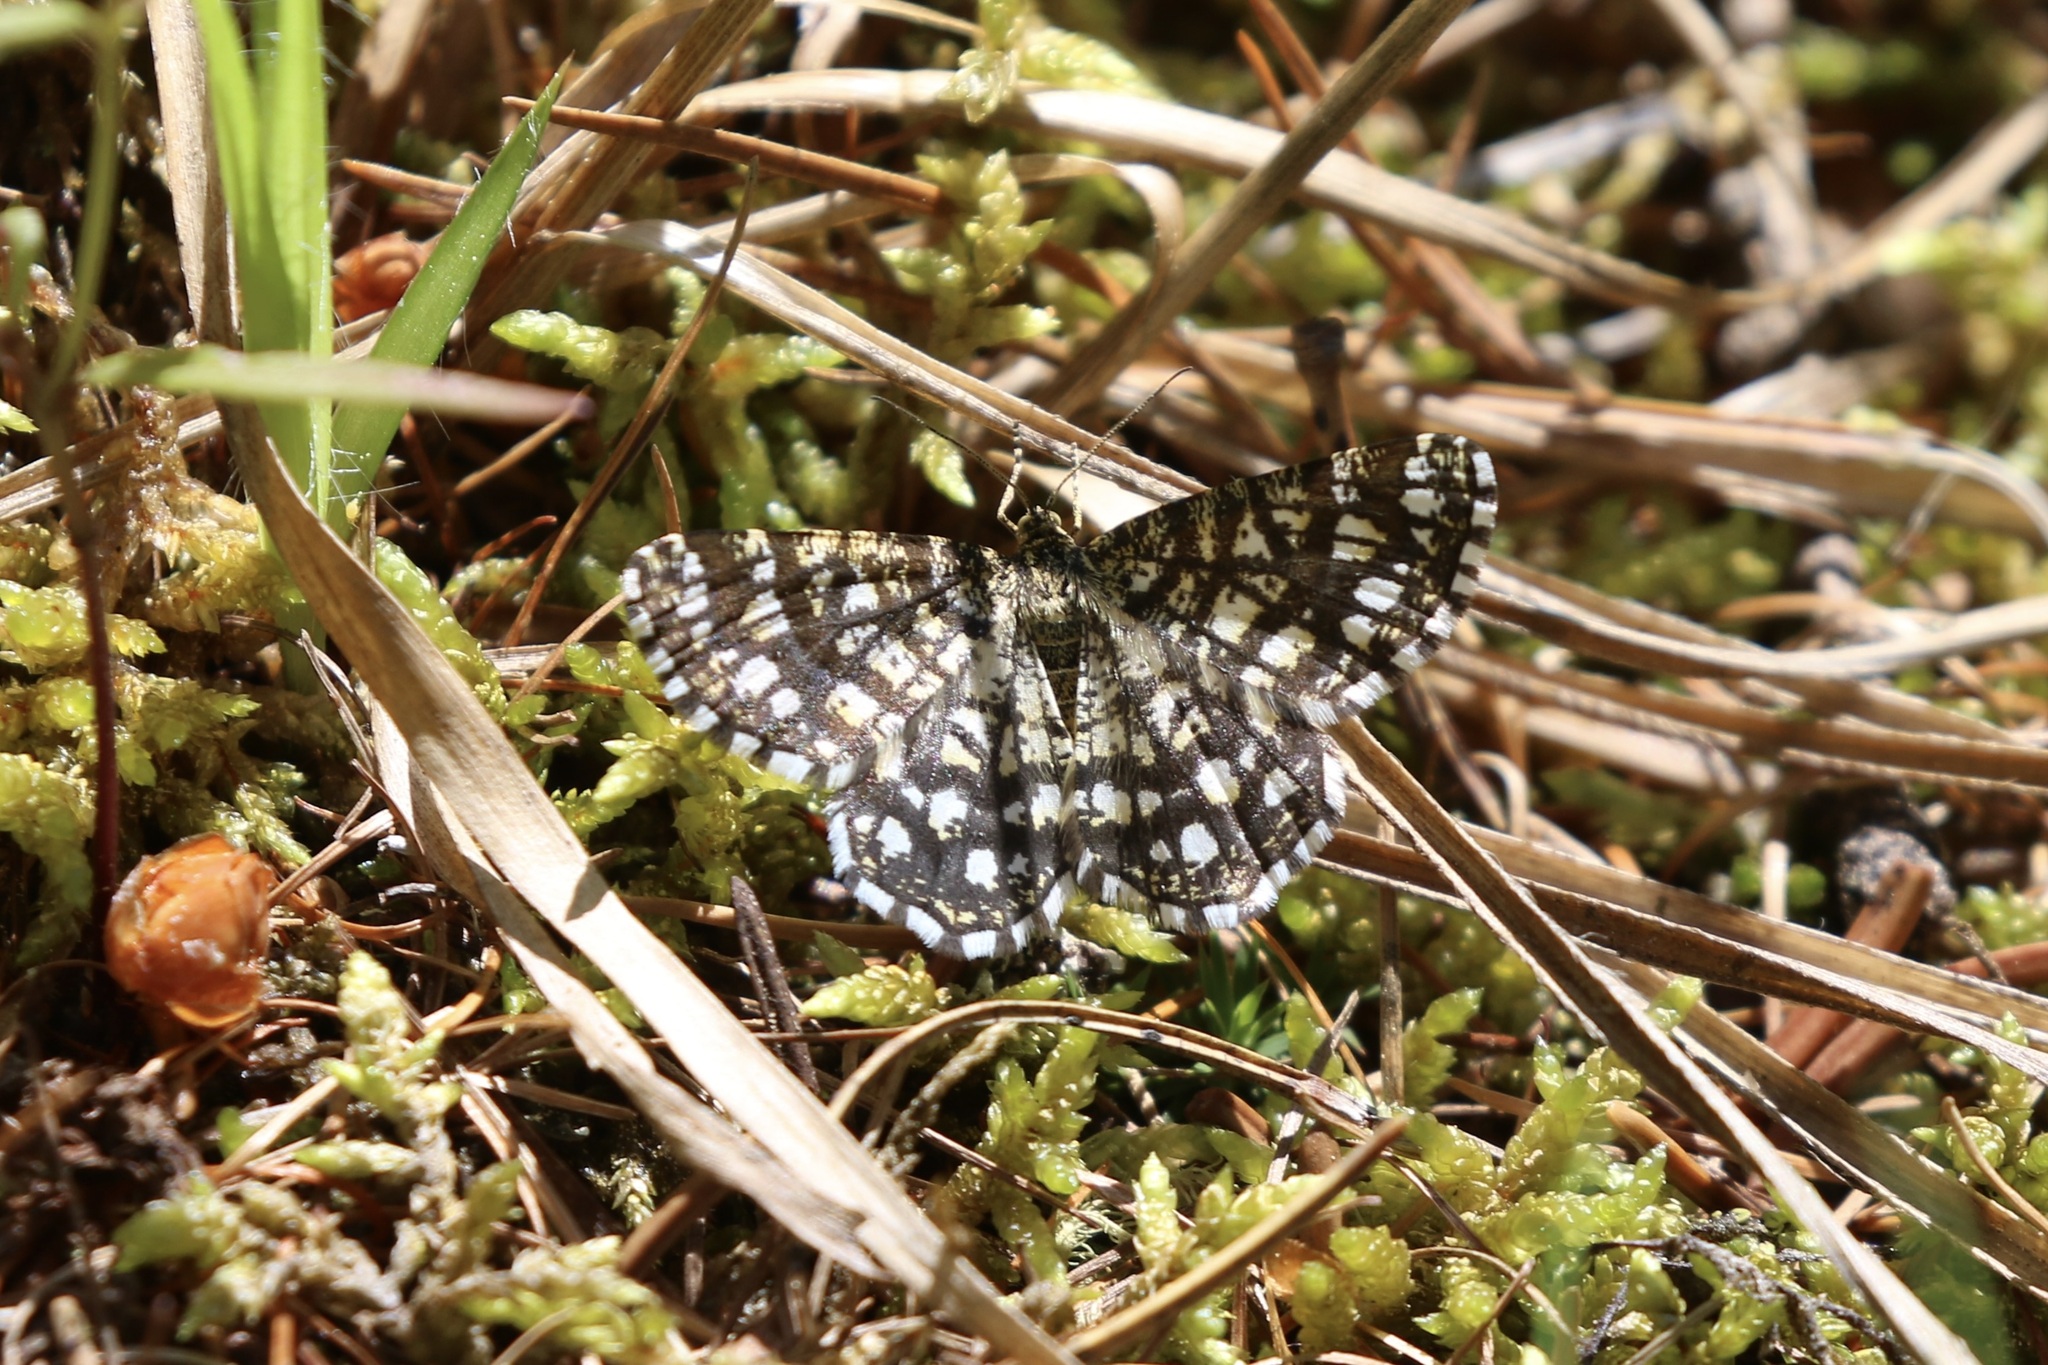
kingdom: Animalia
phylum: Arthropoda
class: Insecta
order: Lepidoptera
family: Geometridae
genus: Chiasmia
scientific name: Chiasmia clathrata
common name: Latticed heath
